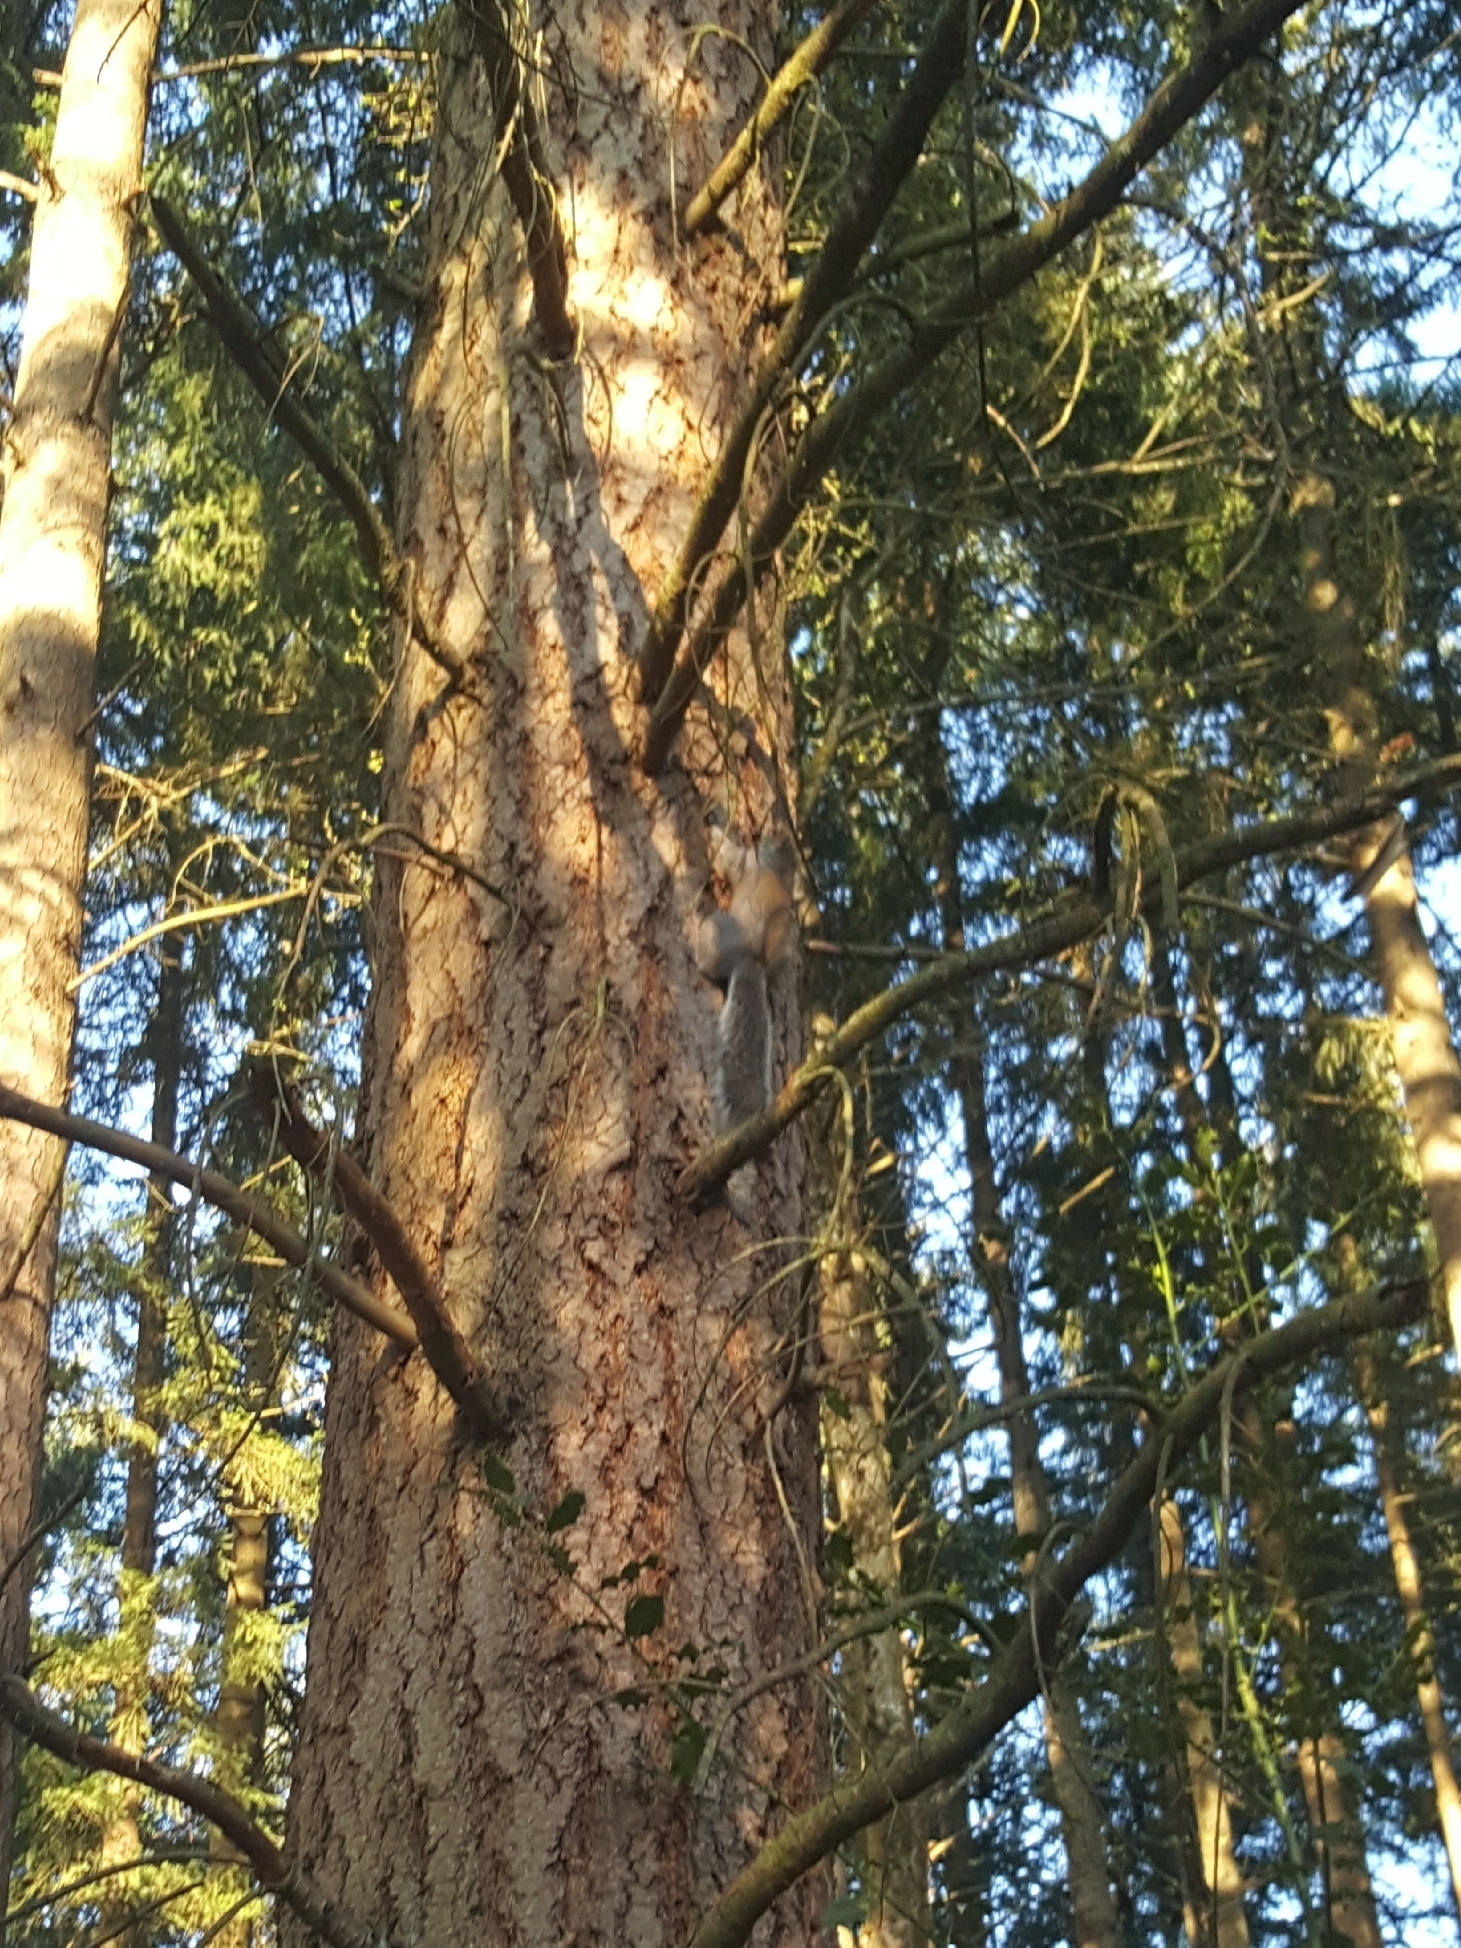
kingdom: Animalia
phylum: Chordata
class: Mammalia
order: Rodentia
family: Sciuridae
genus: Sciurus
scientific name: Sciurus carolinensis
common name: Eastern gray squirrel
